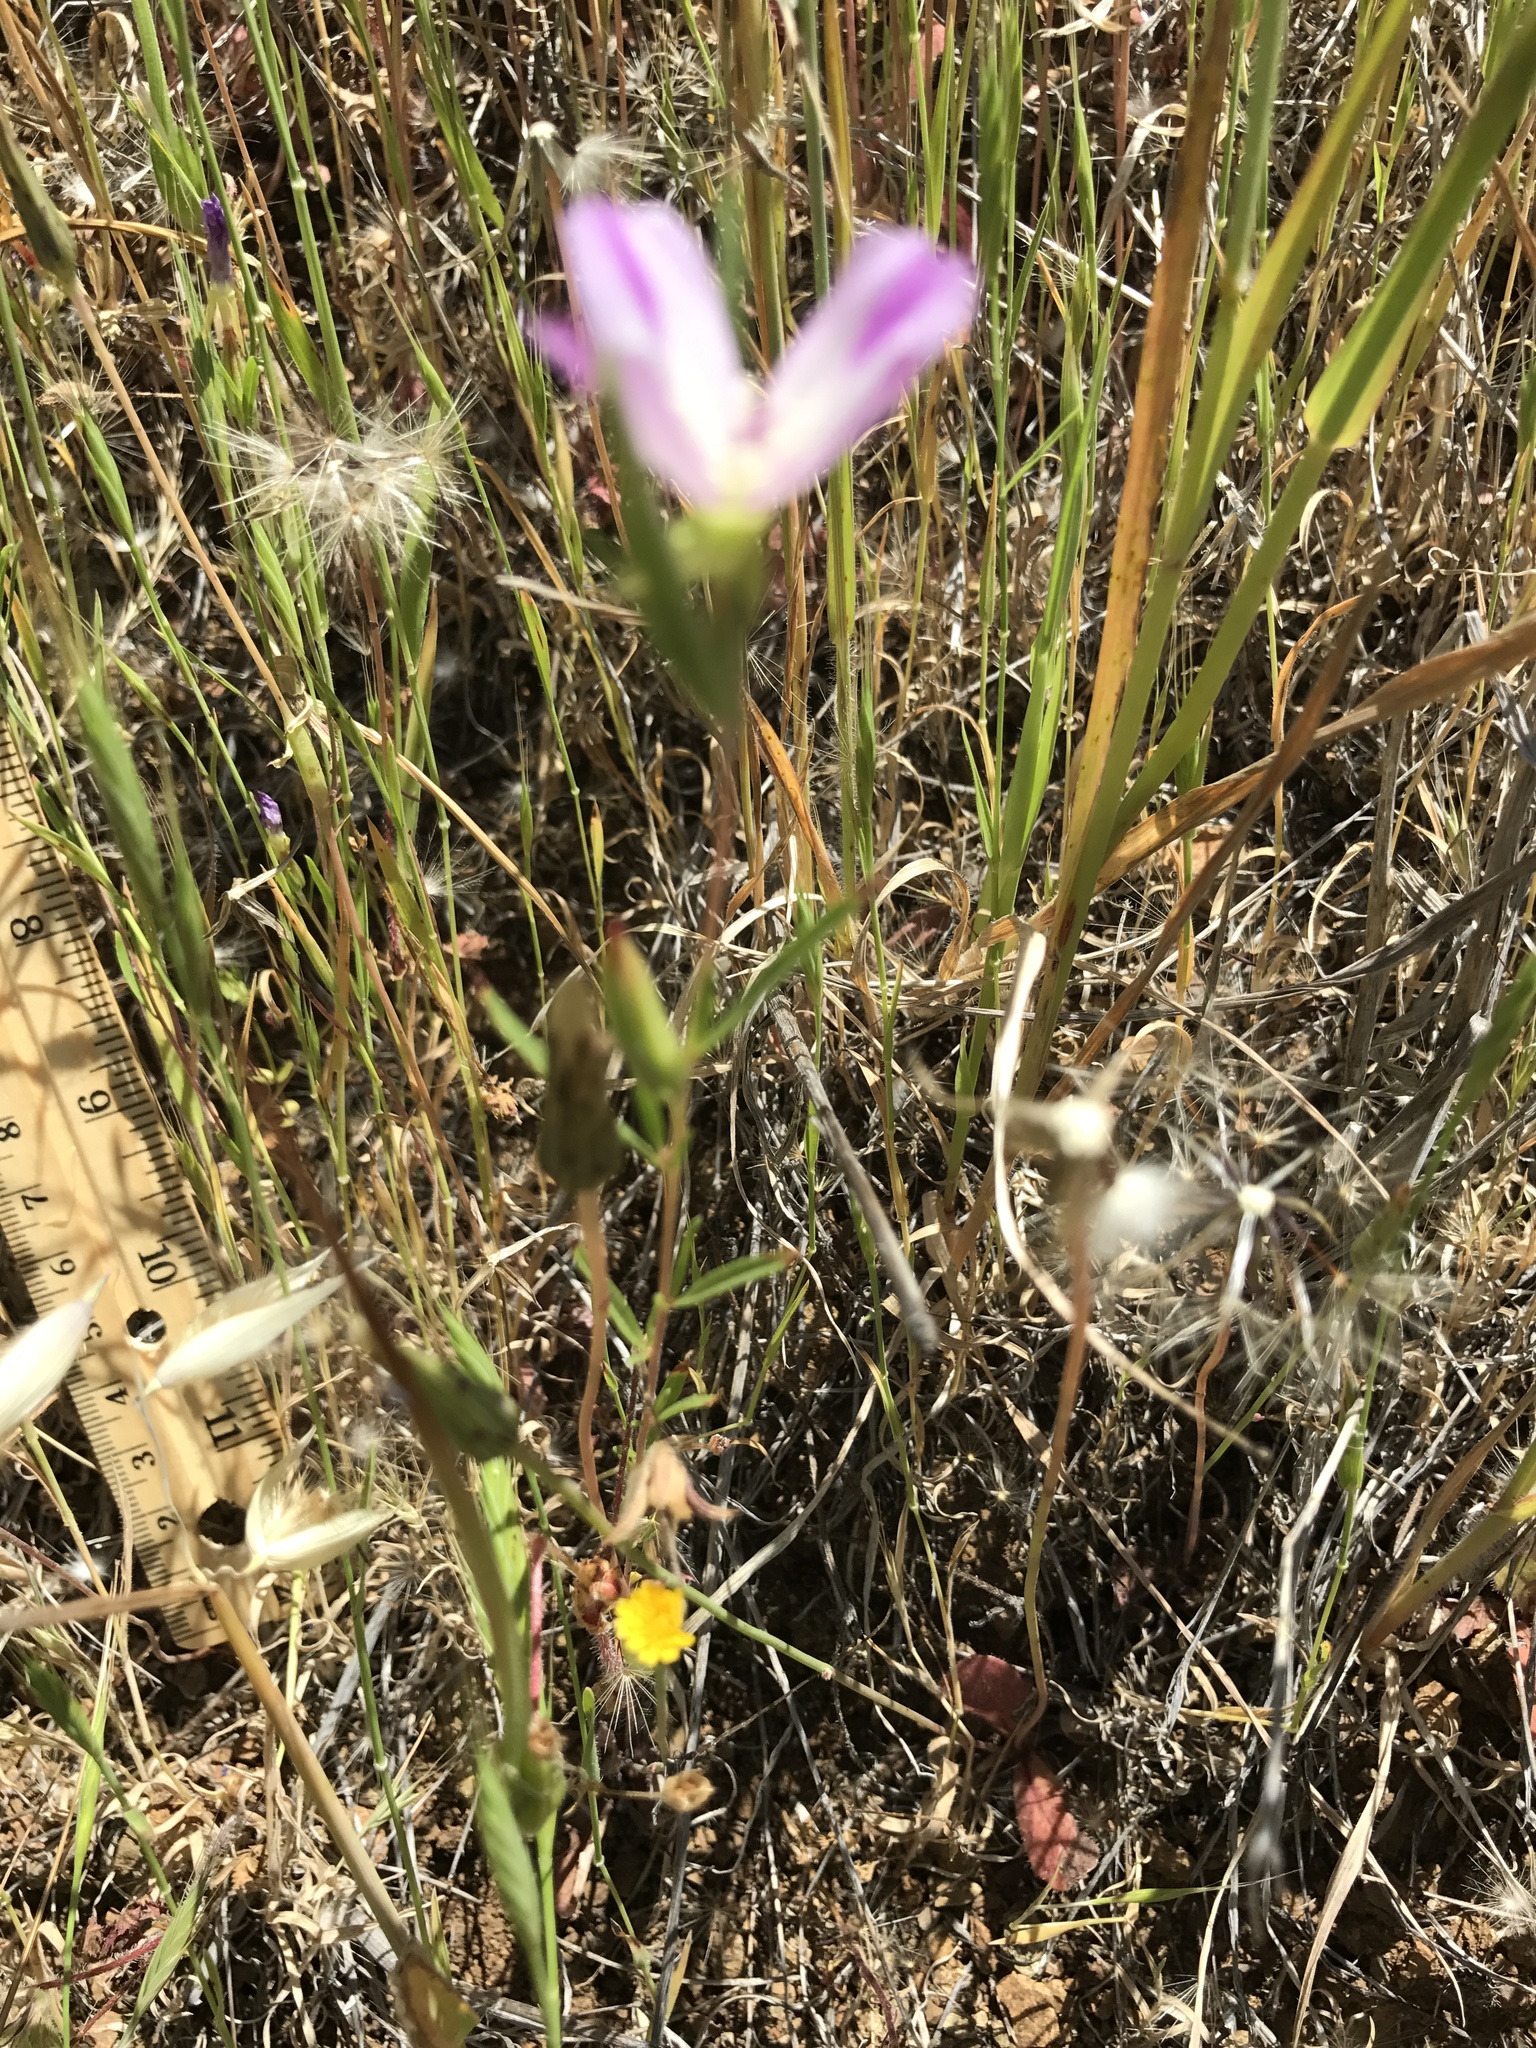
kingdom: Plantae
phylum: Tracheophyta
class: Magnoliopsida
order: Myrtales
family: Onagraceae
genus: Clarkia
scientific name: Clarkia purpurea
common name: Purple clarkia
